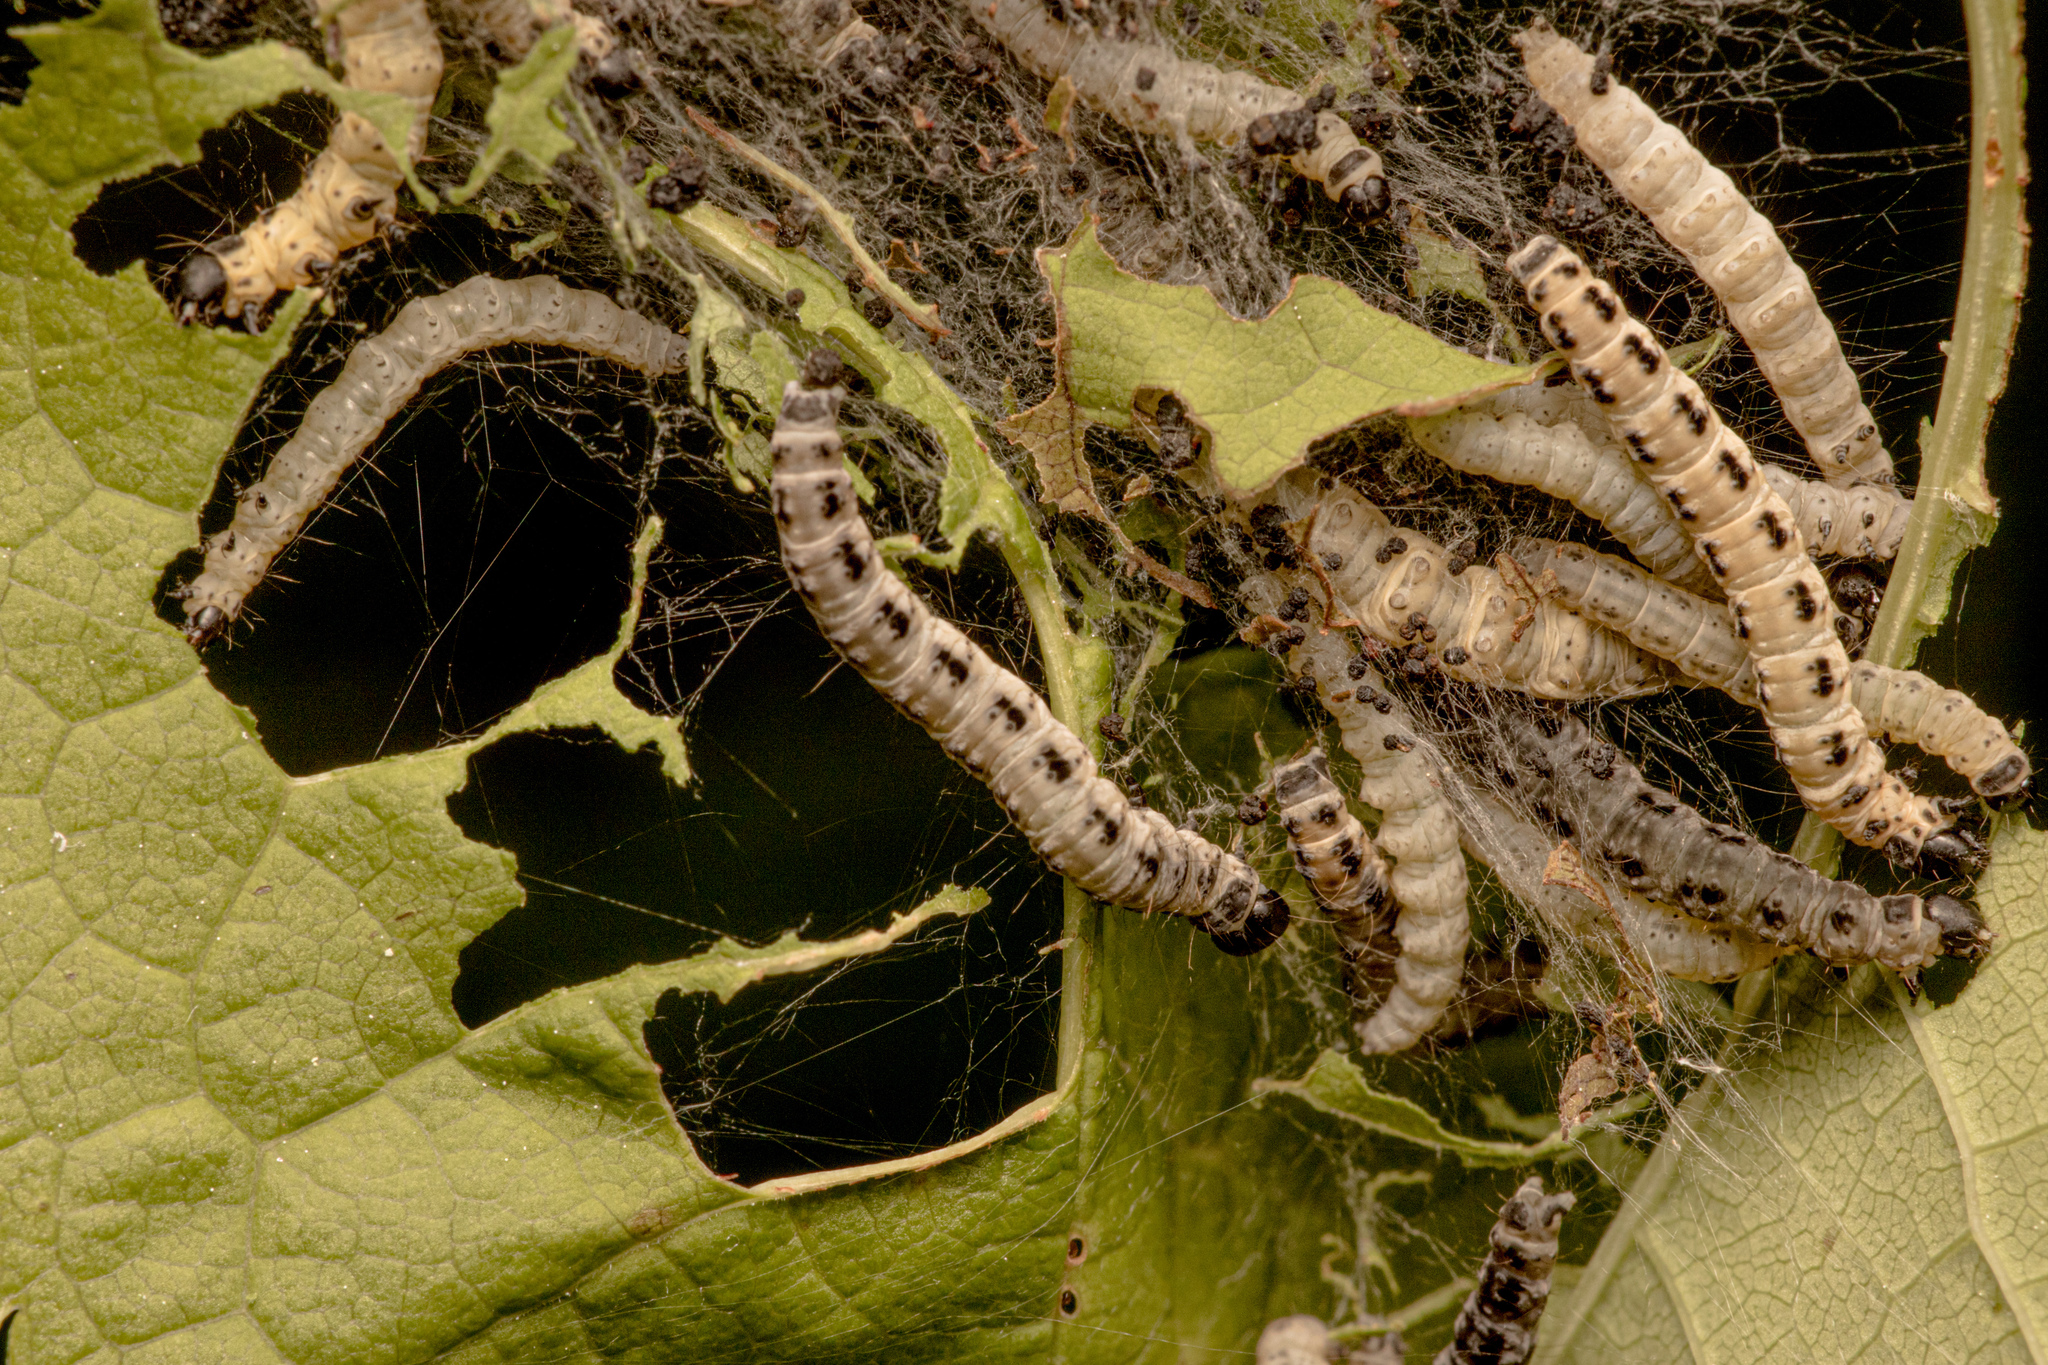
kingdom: Animalia
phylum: Arthropoda
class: Insecta
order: Lepidoptera
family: Yponomeutidae
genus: Yponomeuta
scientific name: Yponomeuta evonymella
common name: Bird-cherry ermine
